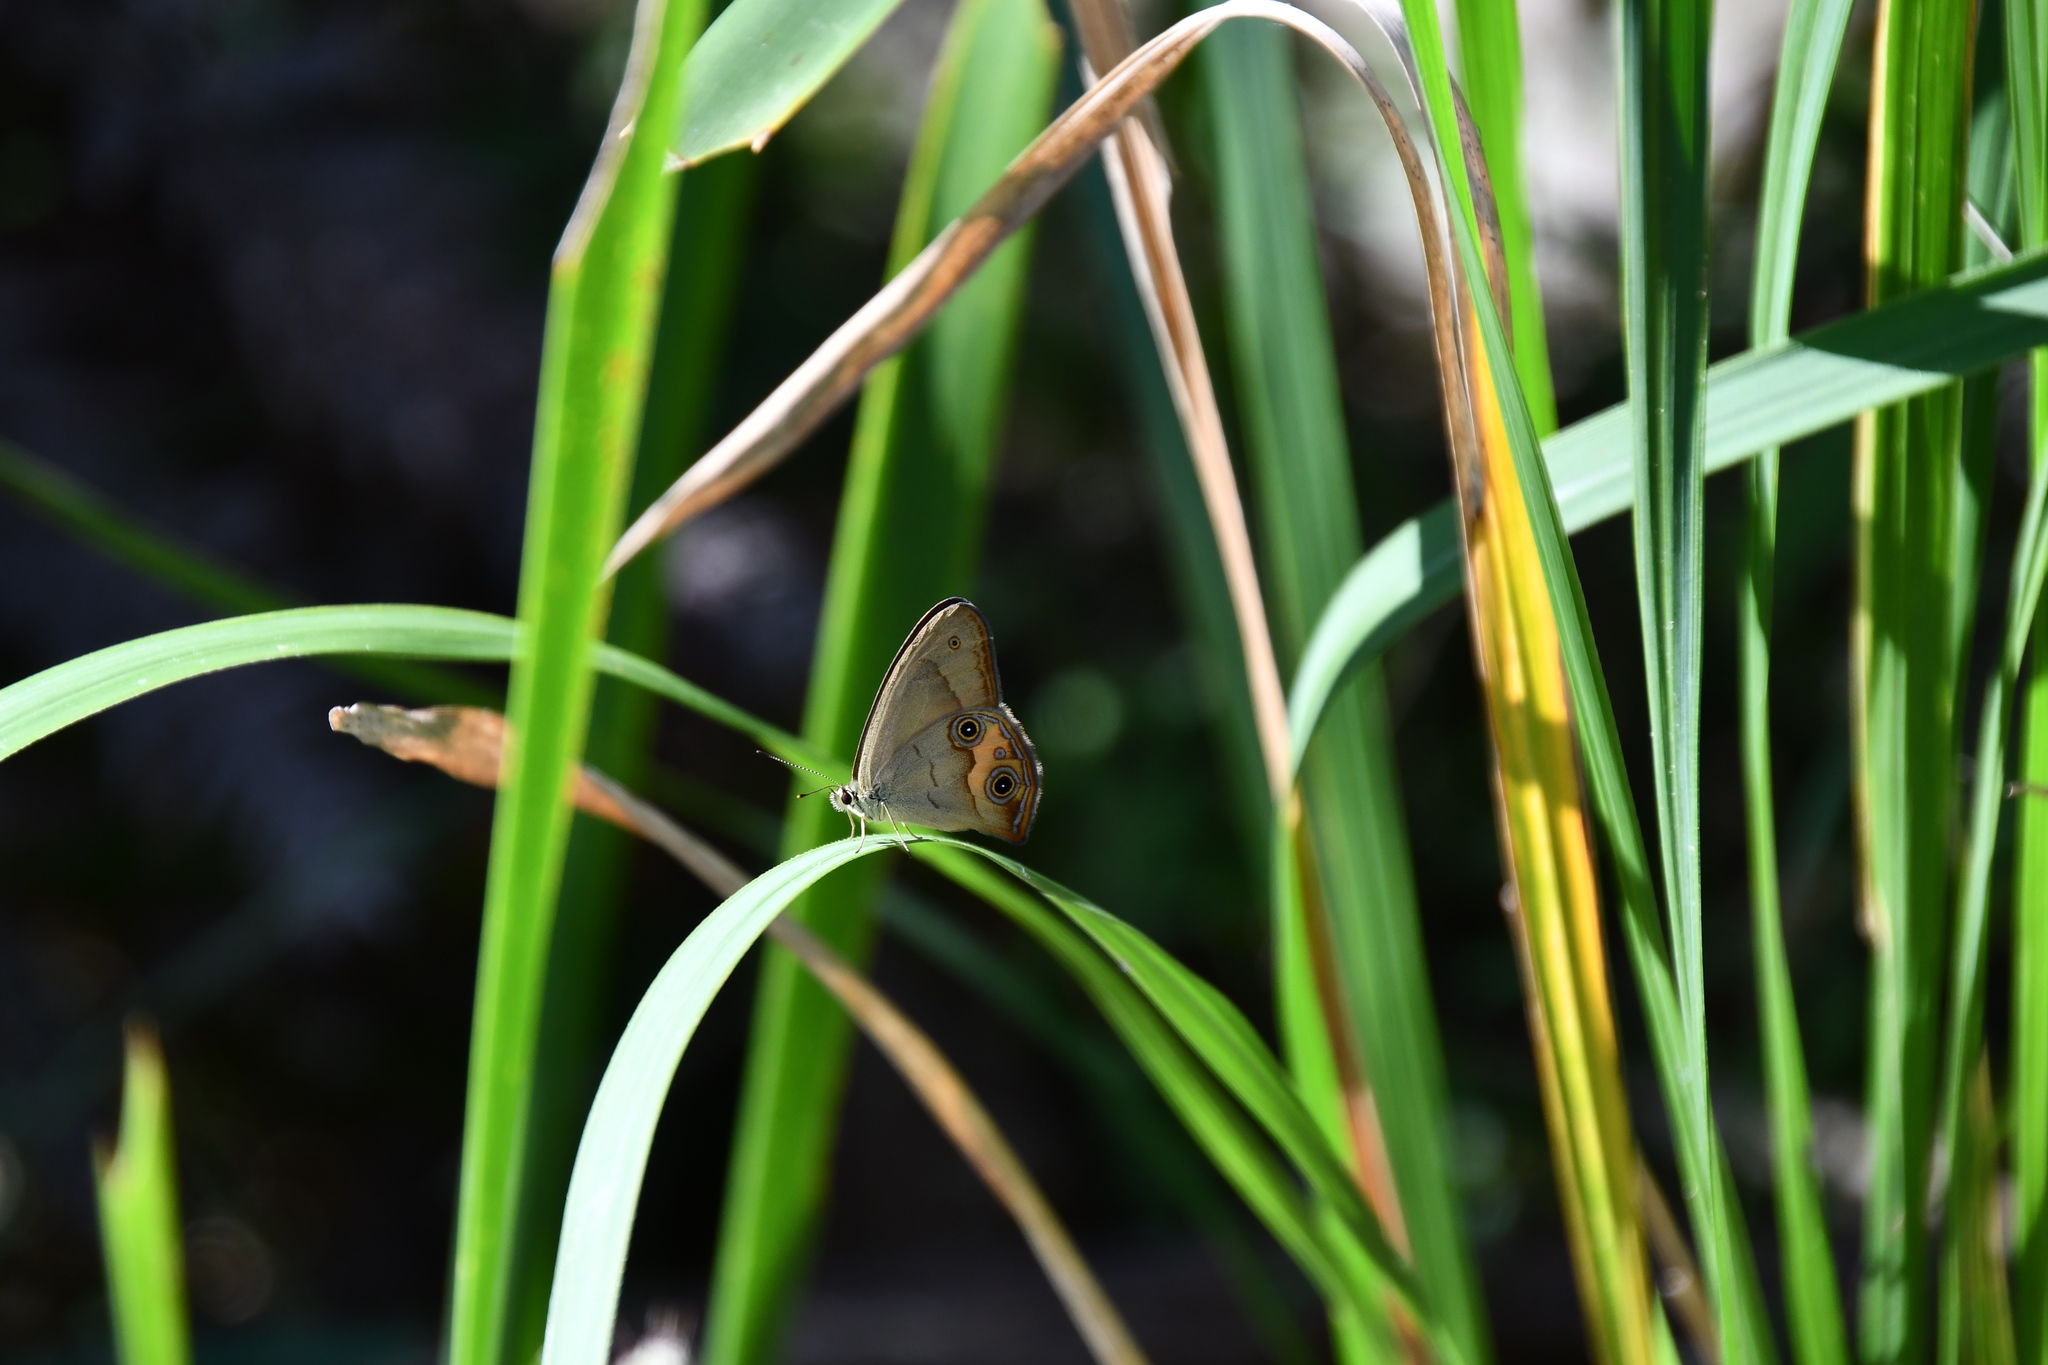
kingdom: Animalia
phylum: Arthropoda
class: Insecta
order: Lepidoptera
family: Nymphalidae
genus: Hypocysta
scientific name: Hypocysta metirius
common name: Brown ringlet
